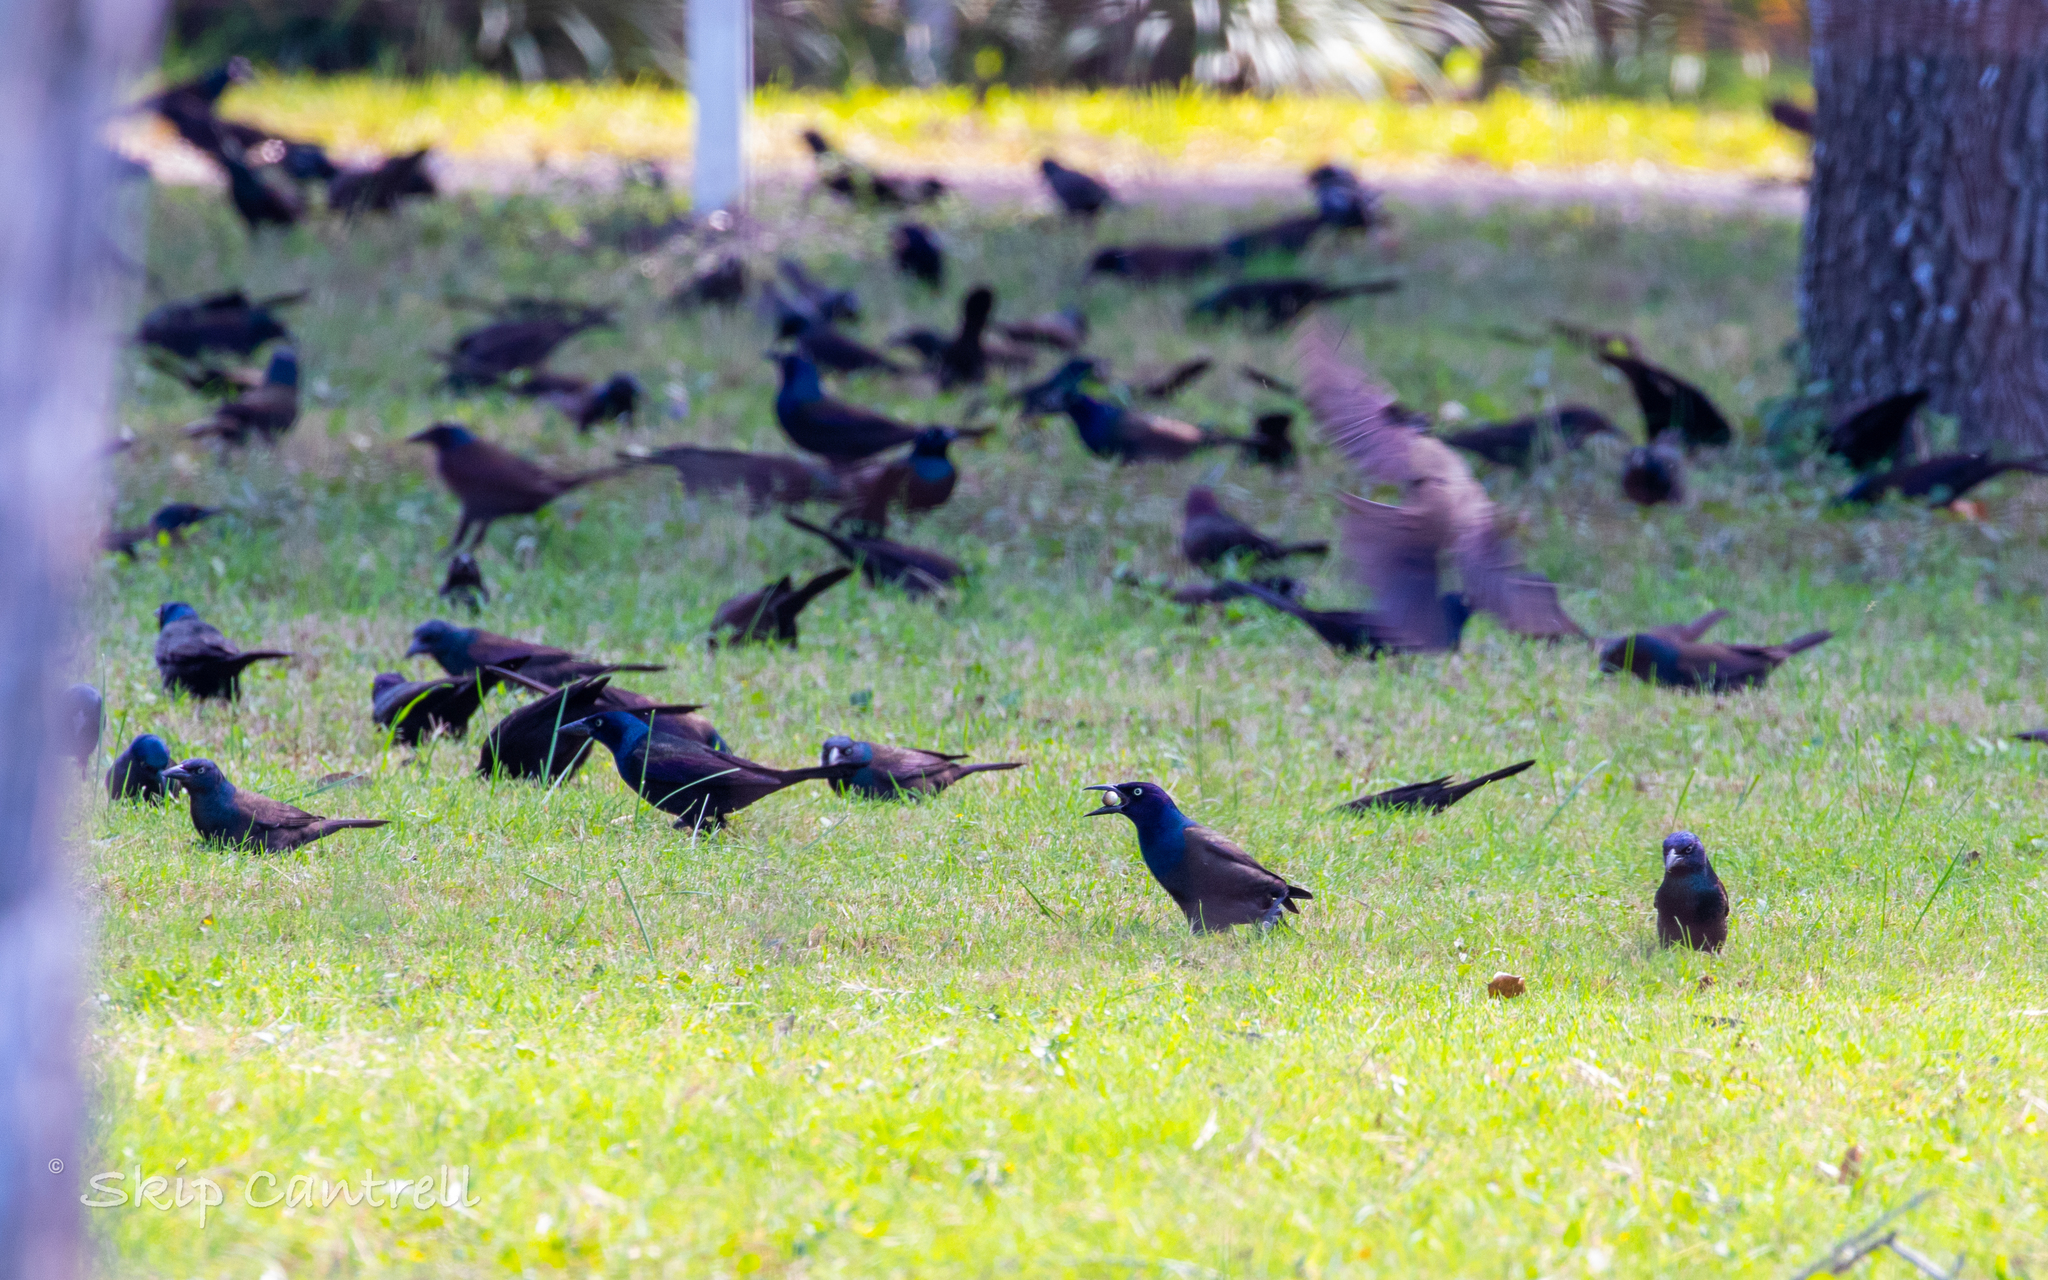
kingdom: Animalia
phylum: Chordata
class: Aves
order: Passeriformes
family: Icteridae
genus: Quiscalus
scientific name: Quiscalus quiscula
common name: Common grackle
